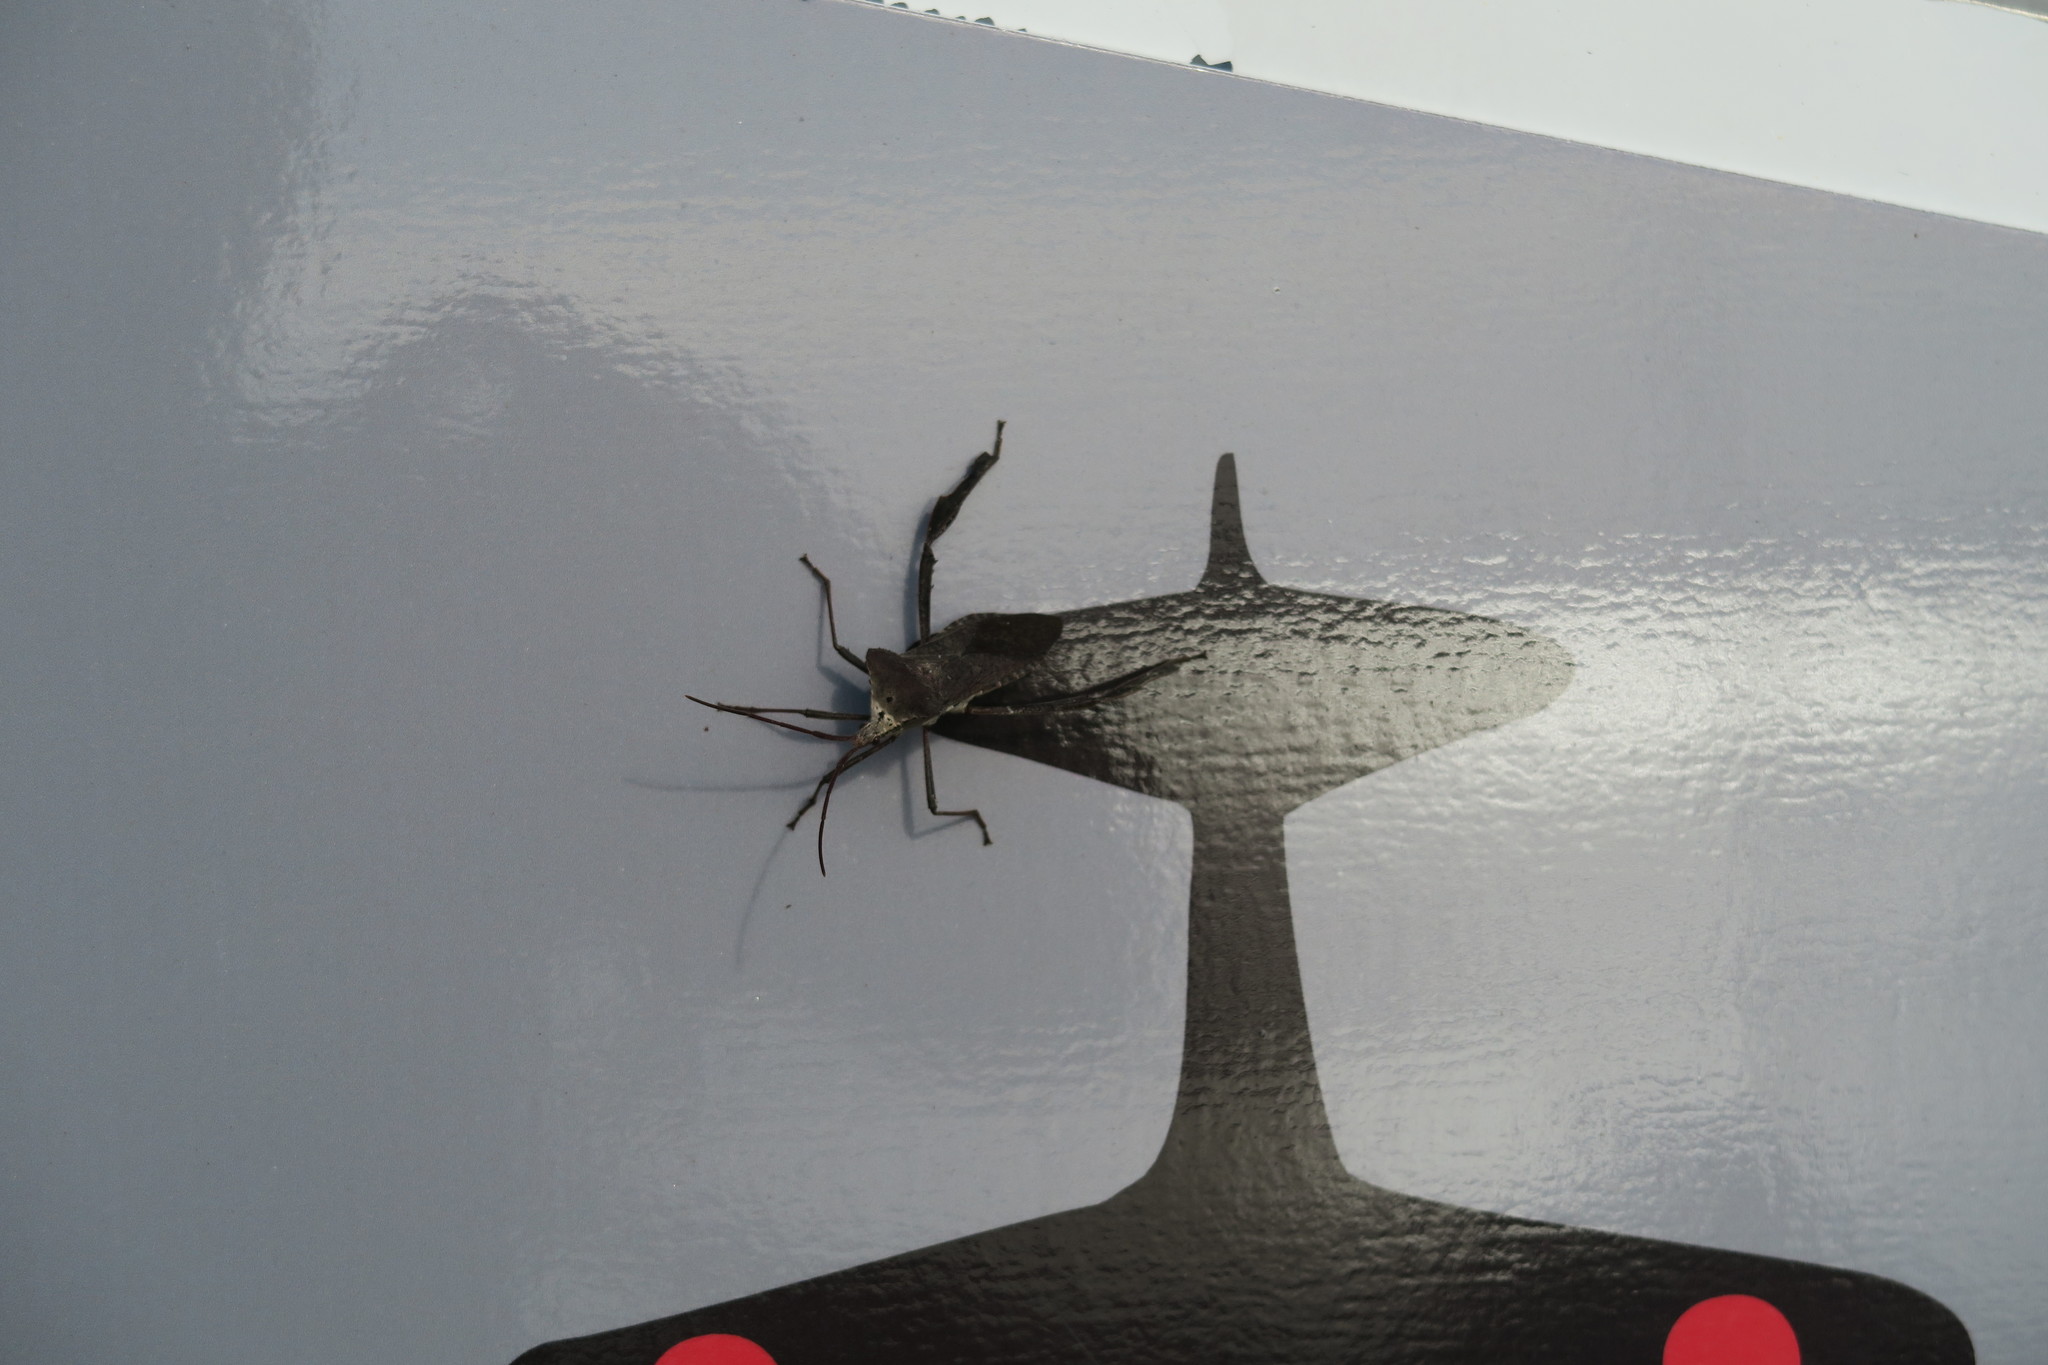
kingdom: Animalia
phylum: Arthropoda
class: Insecta
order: Hemiptera
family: Coreidae
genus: Acanthocephala
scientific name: Acanthocephala declivis
